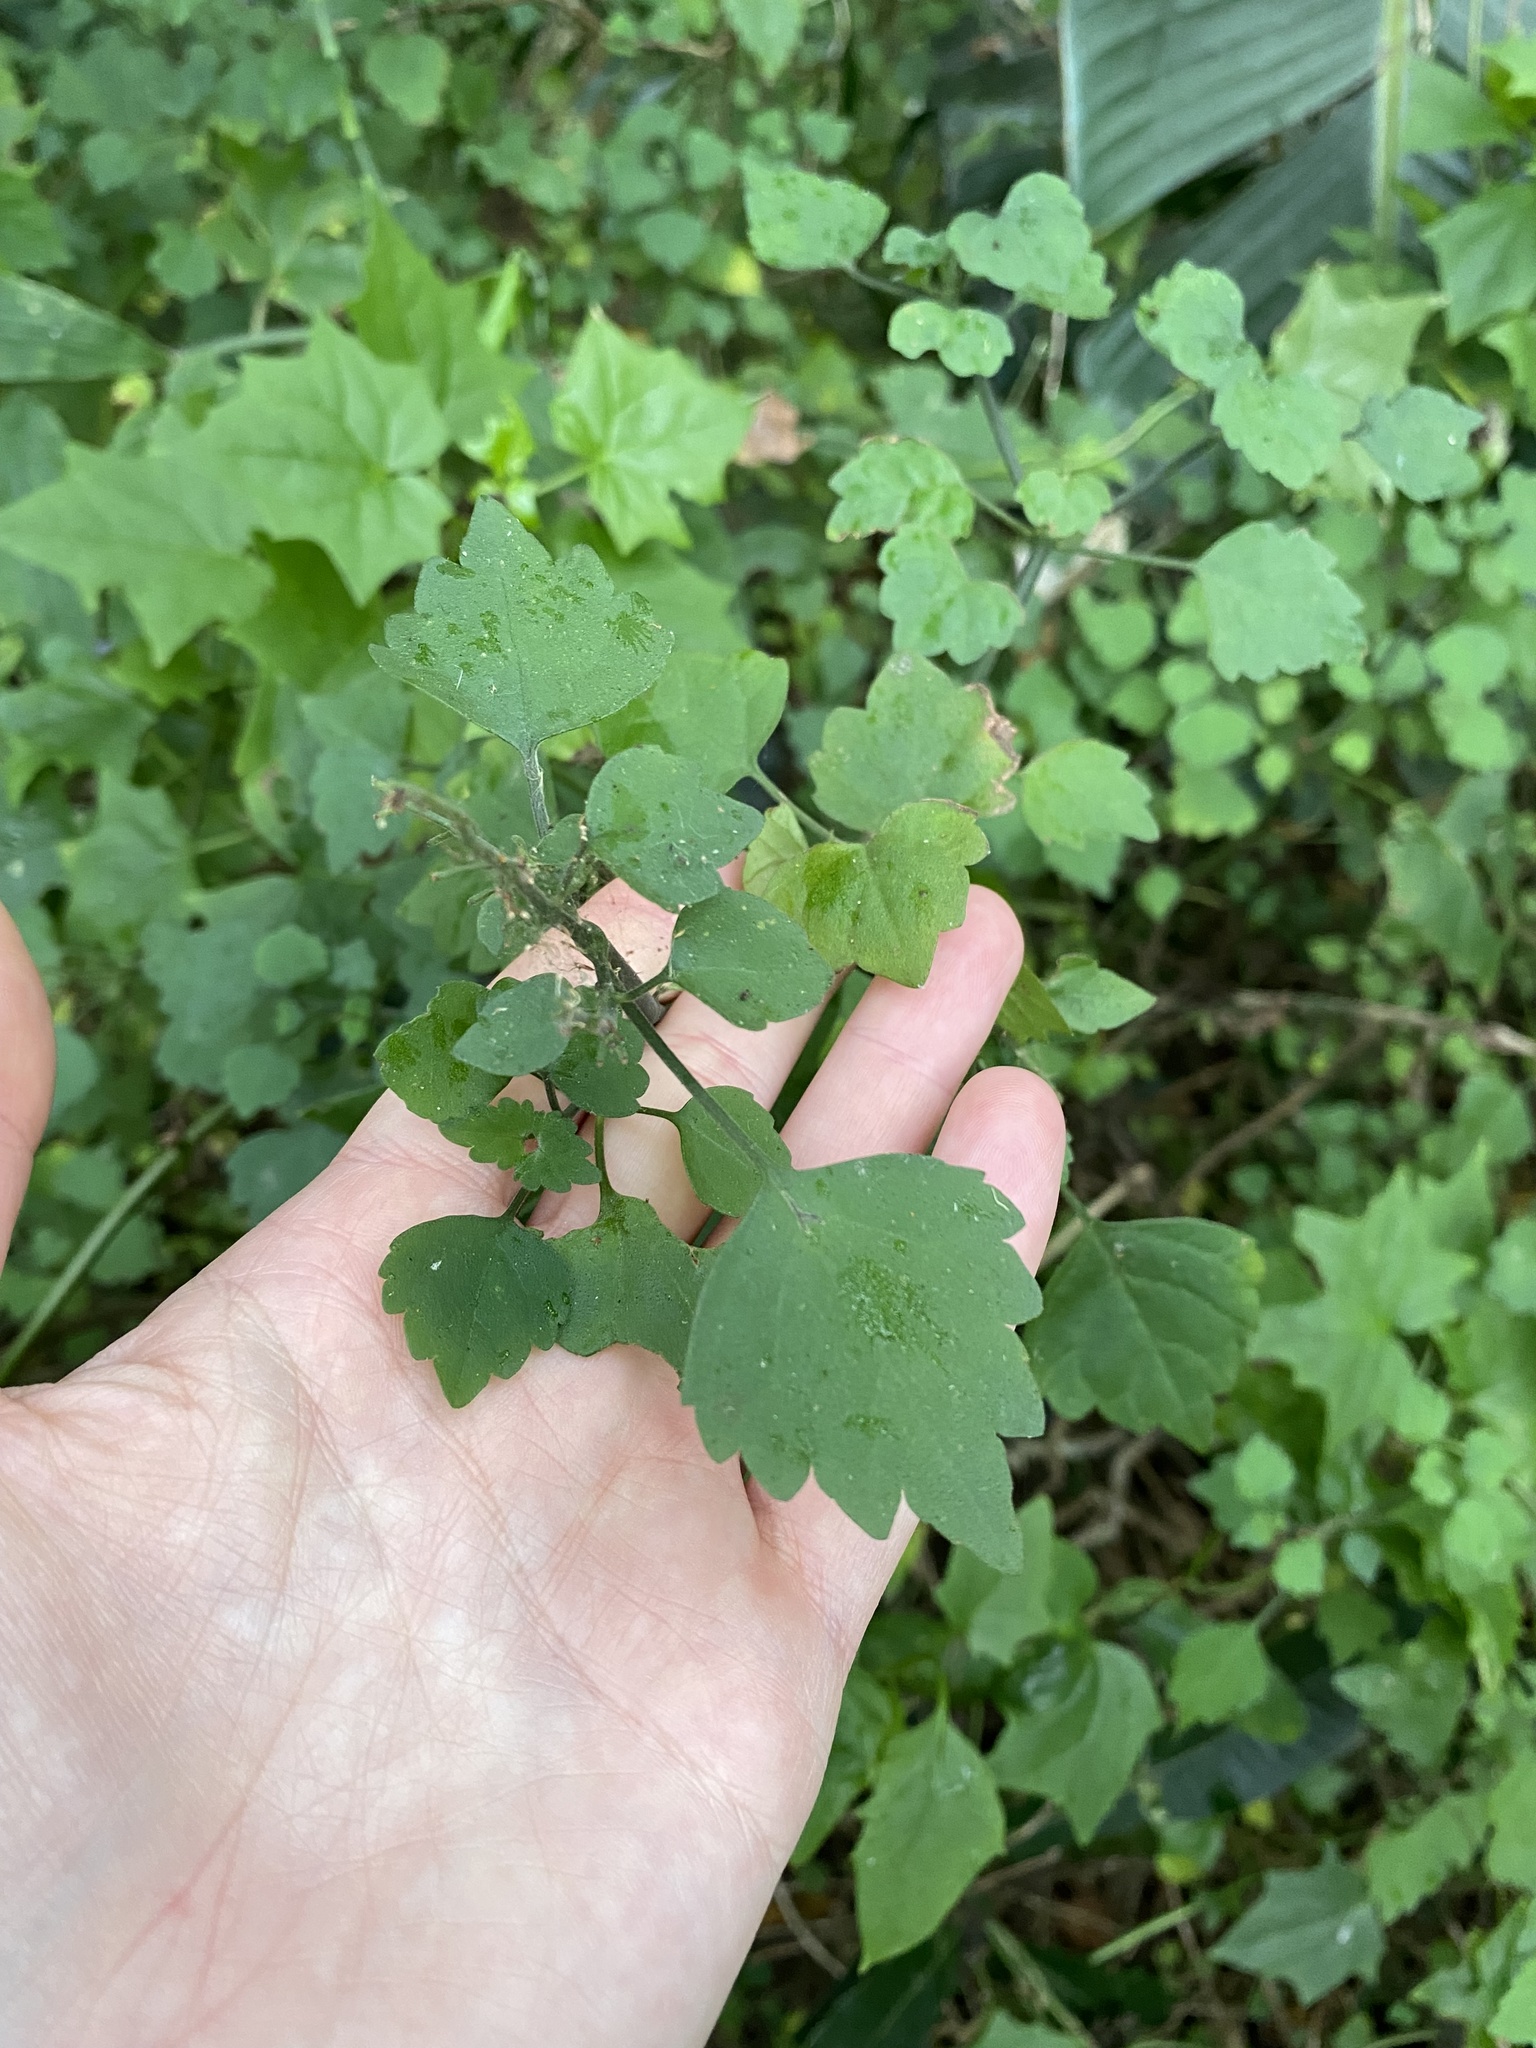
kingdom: Plantae
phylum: Tracheophyta
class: Magnoliopsida
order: Lamiales
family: Lamiaceae
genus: Plectranthus
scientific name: Plectranthus saccatus
